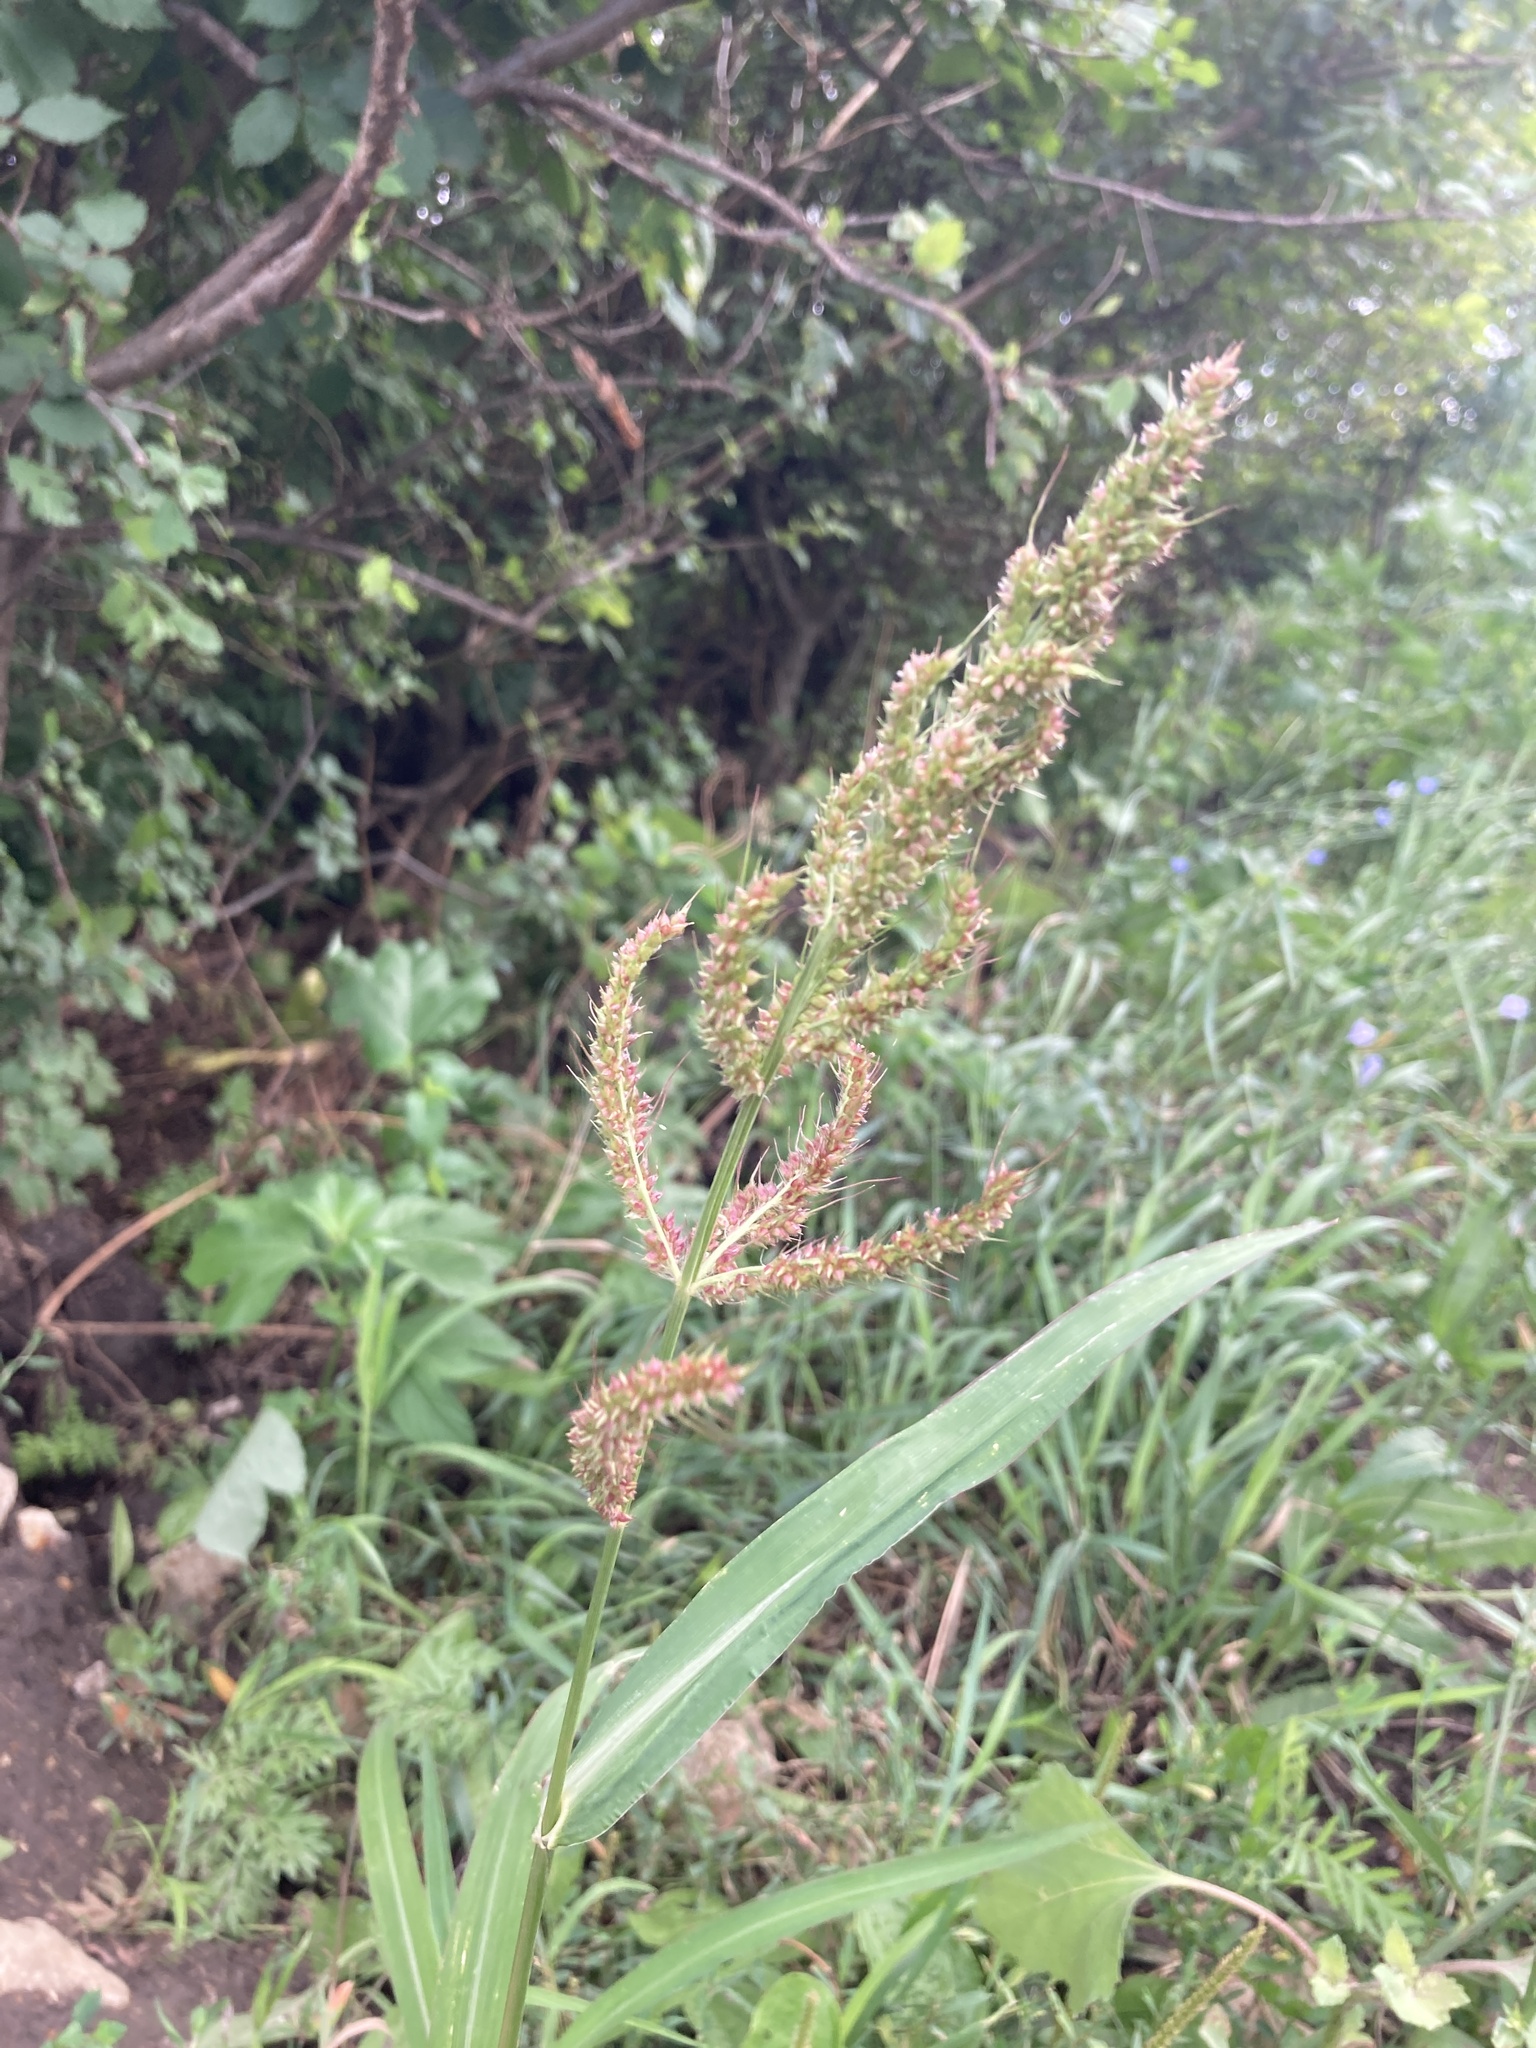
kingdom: Plantae
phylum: Tracheophyta
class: Liliopsida
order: Poales
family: Poaceae
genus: Echinochloa
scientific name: Echinochloa crus-galli
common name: Cockspur
